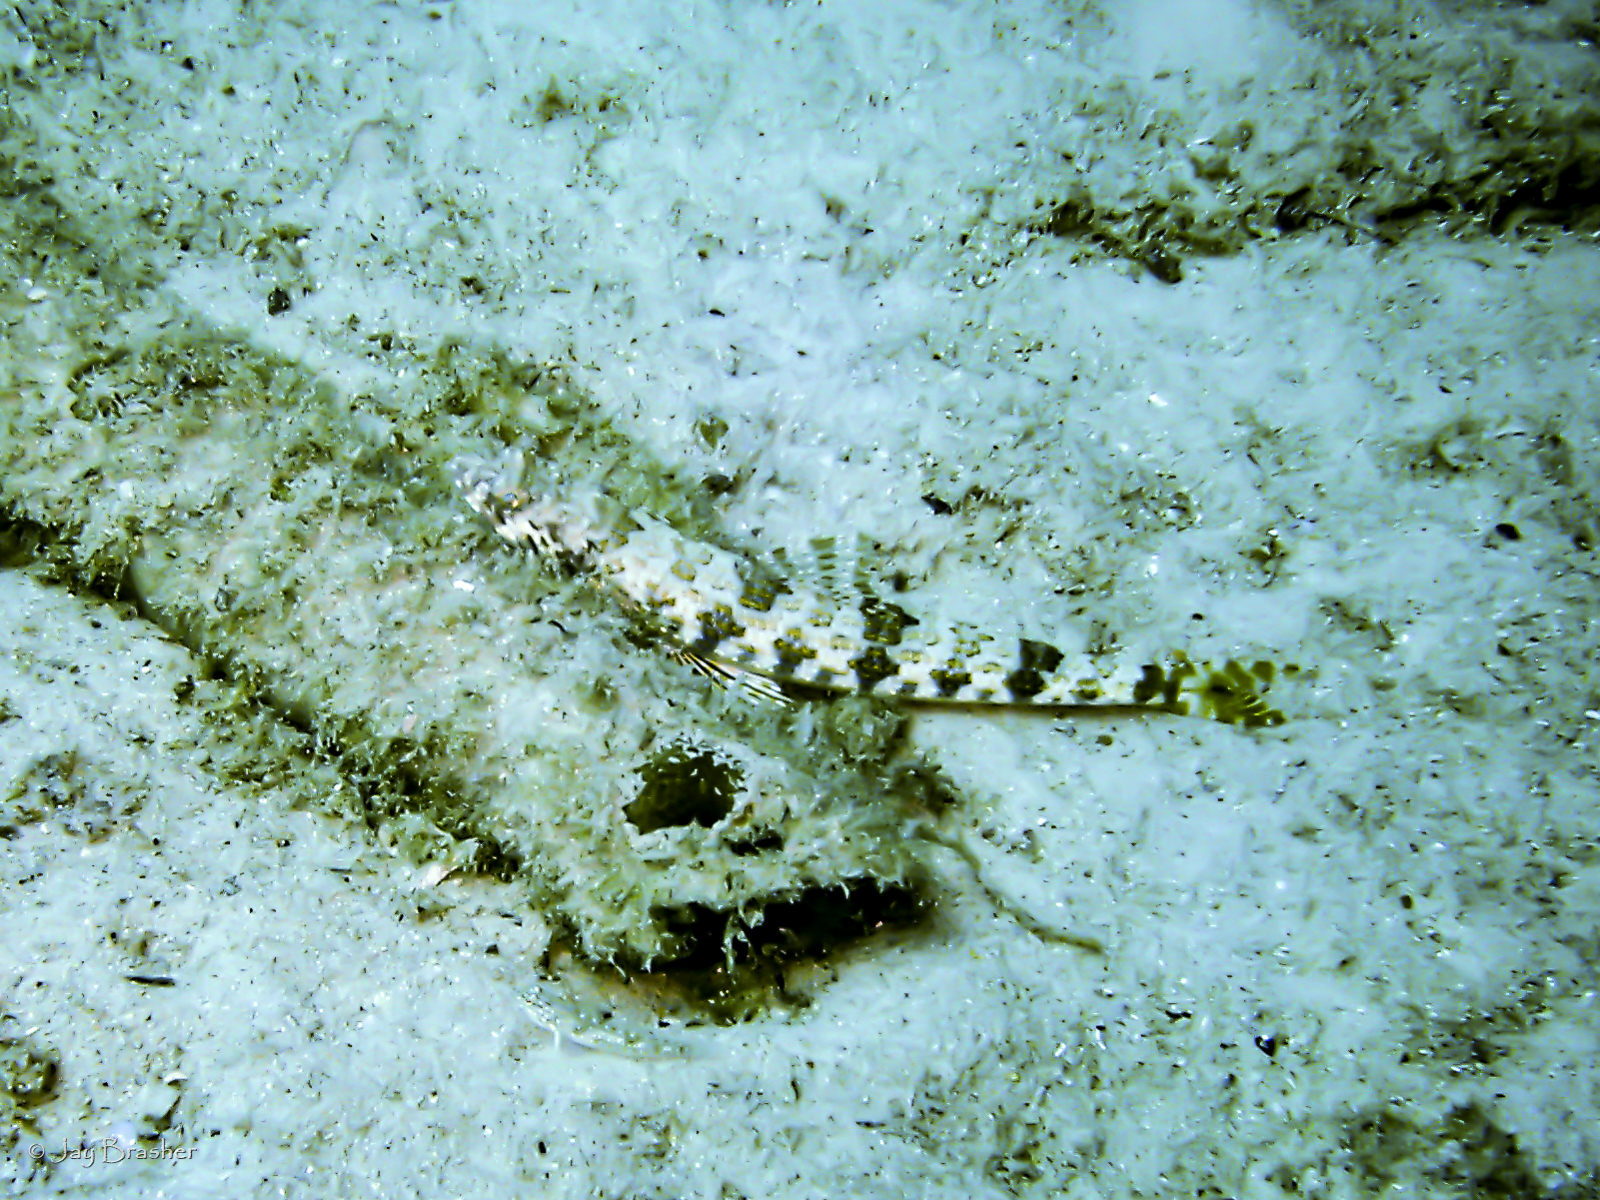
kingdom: Animalia
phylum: Chordata
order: Aulopiformes
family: Synodontidae
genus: Synodus
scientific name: Synodus intermedius
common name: Sand diver
